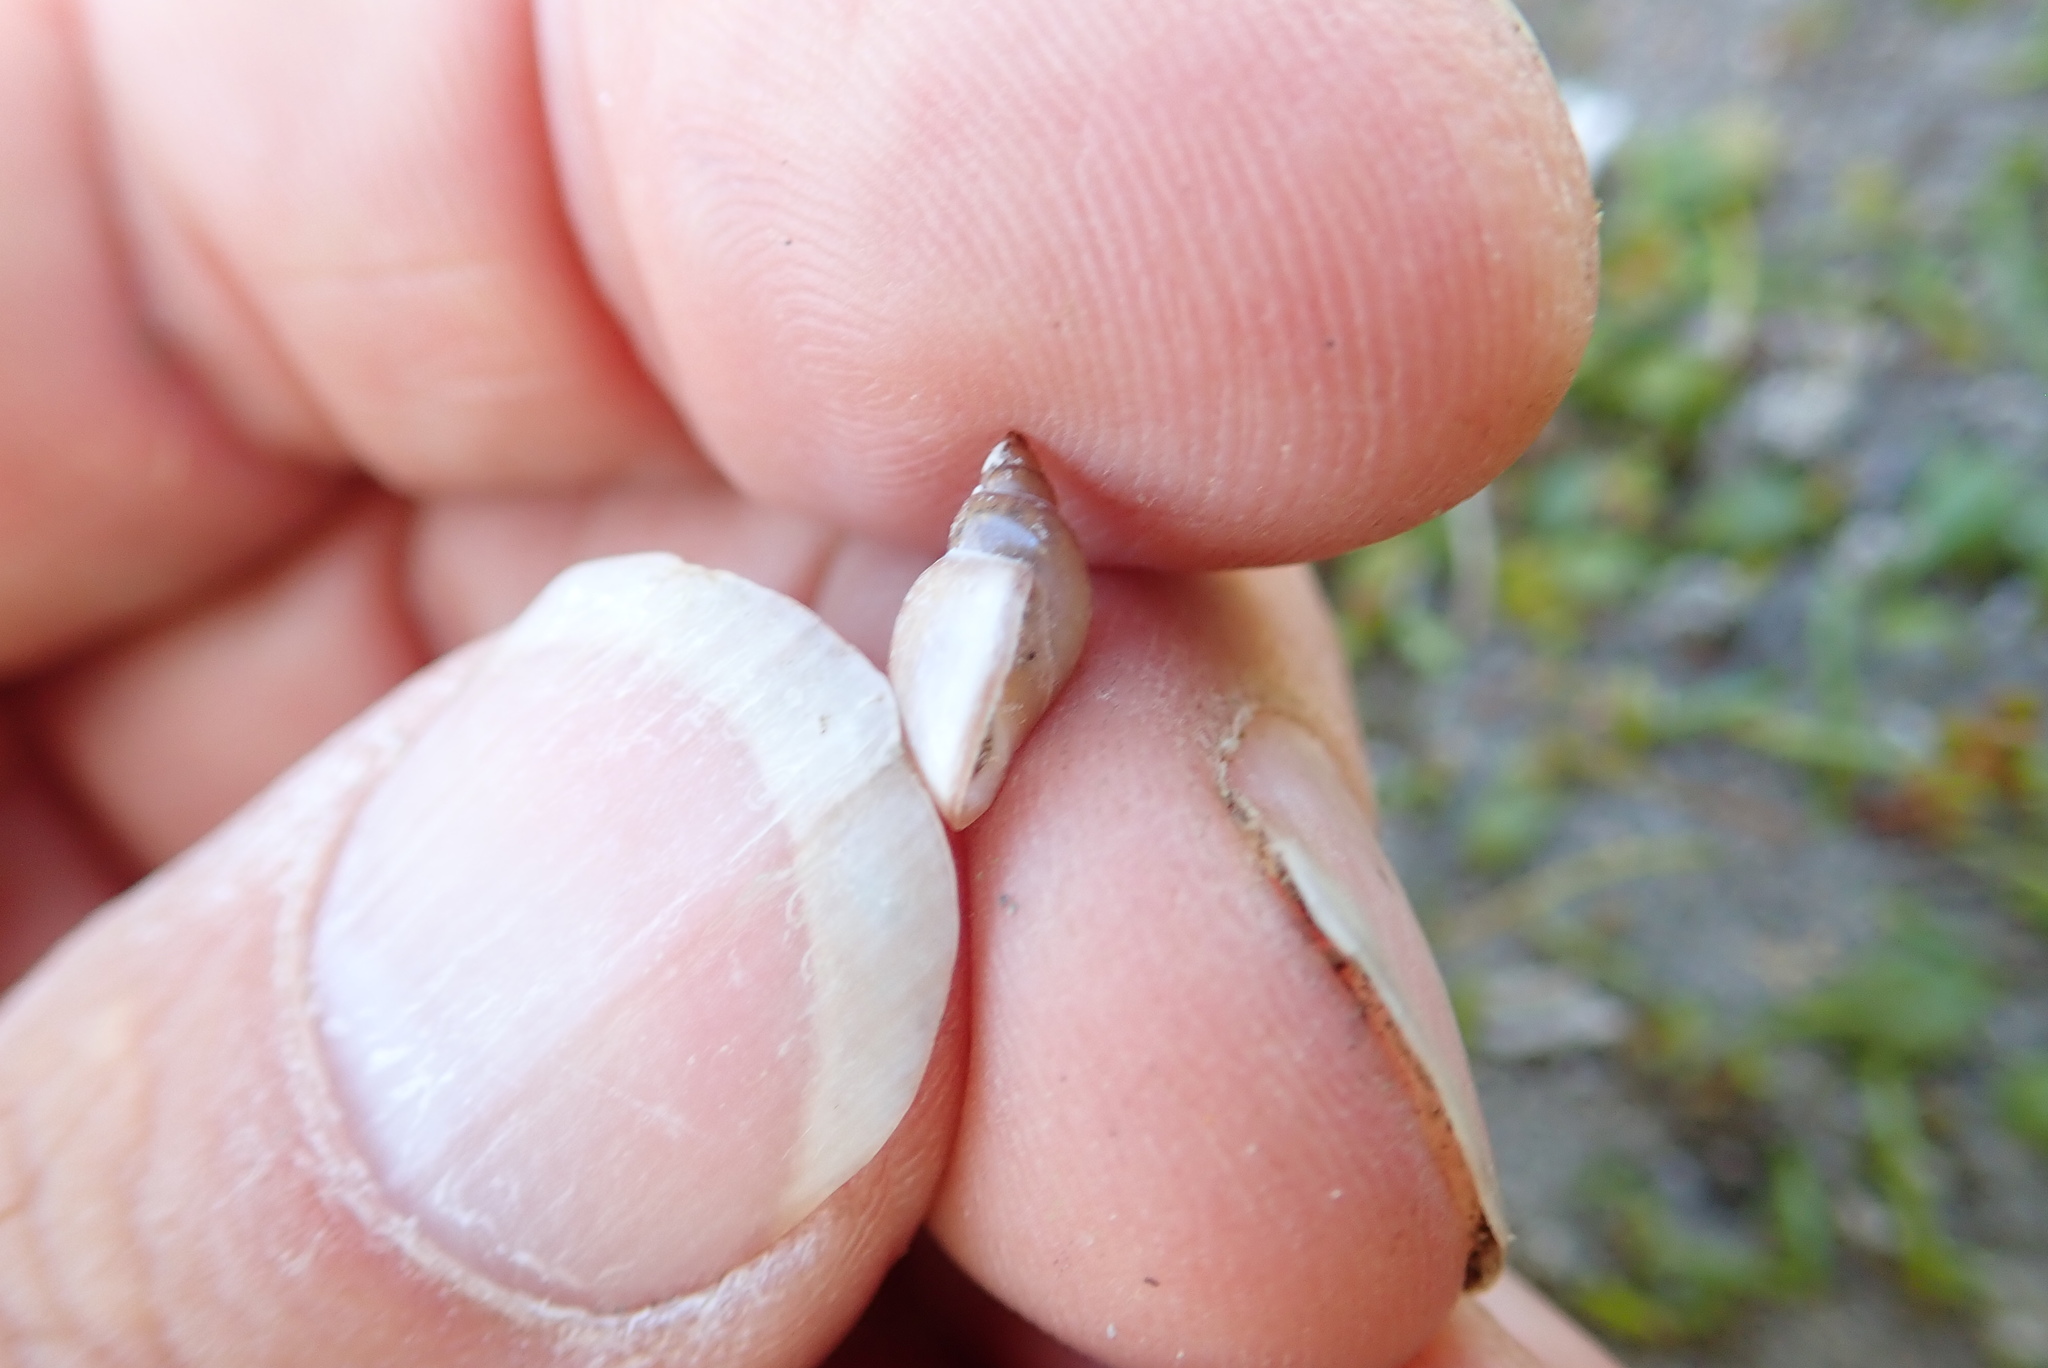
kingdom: Animalia
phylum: Mollusca
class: Gastropoda
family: Physidae
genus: Physella
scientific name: Physella acuta
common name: European physa
